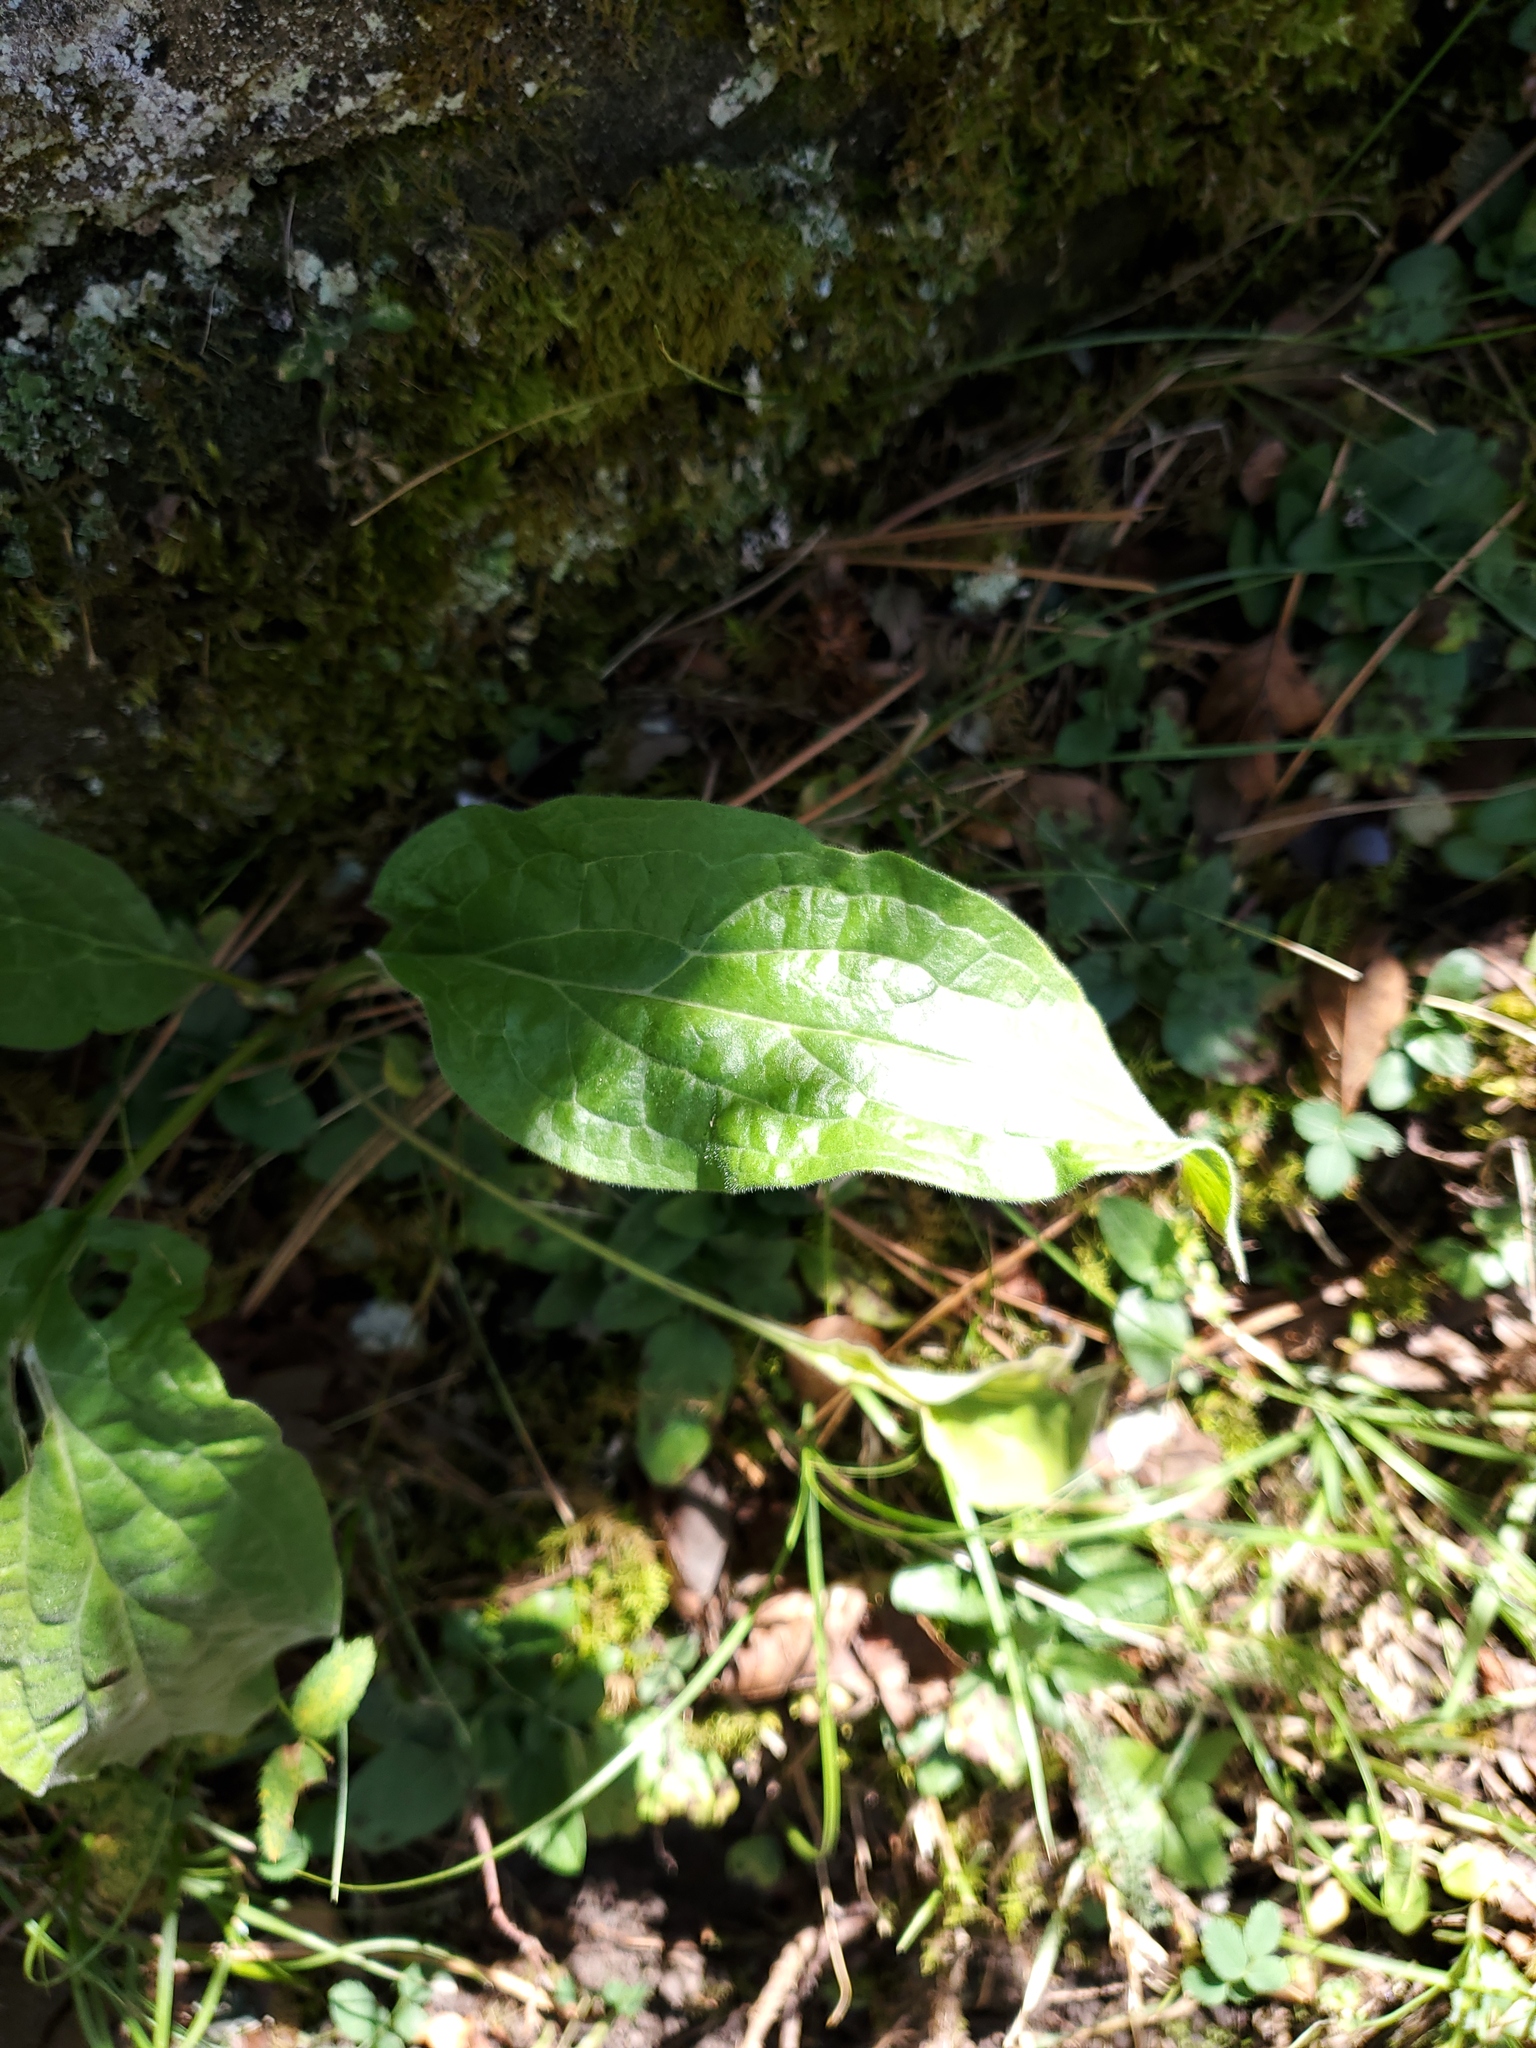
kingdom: Plantae
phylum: Tracheophyta
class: Magnoliopsida
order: Boraginales
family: Boraginaceae
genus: Cynoglossum
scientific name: Cynoglossum officinale
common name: Hound's-tongue
